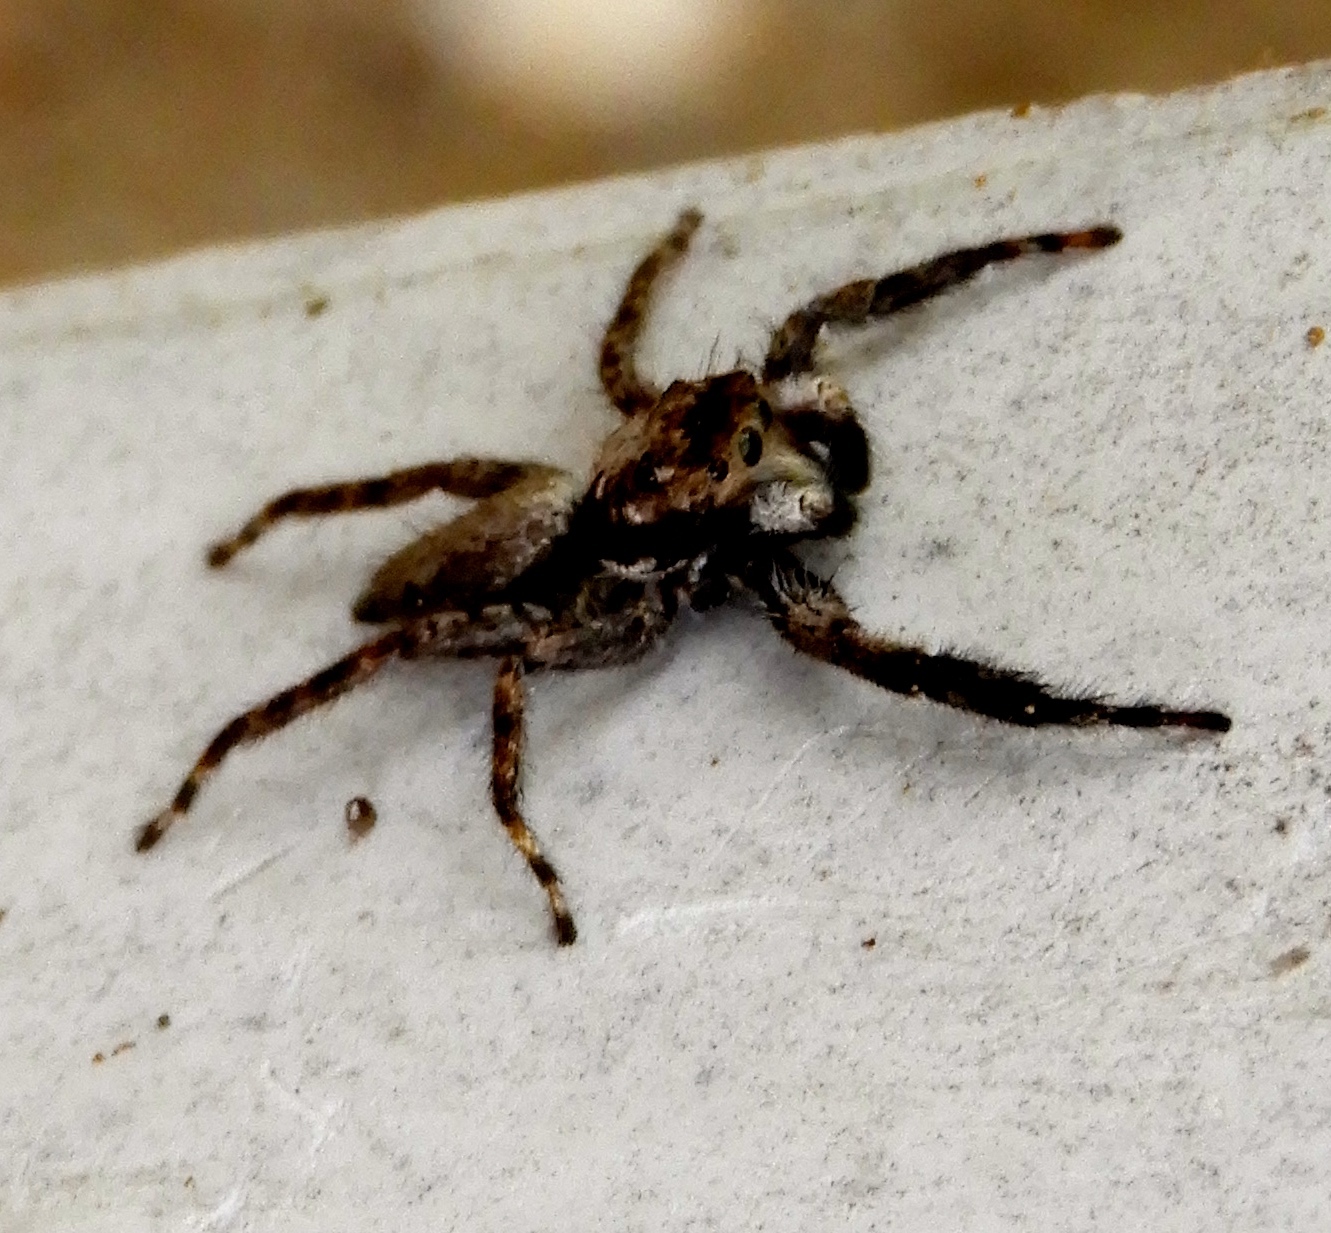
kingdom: Animalia
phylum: Arthropoda
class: Arachnida
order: Araneae
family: Salticidae
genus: Balmaceda
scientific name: Balmaceda
